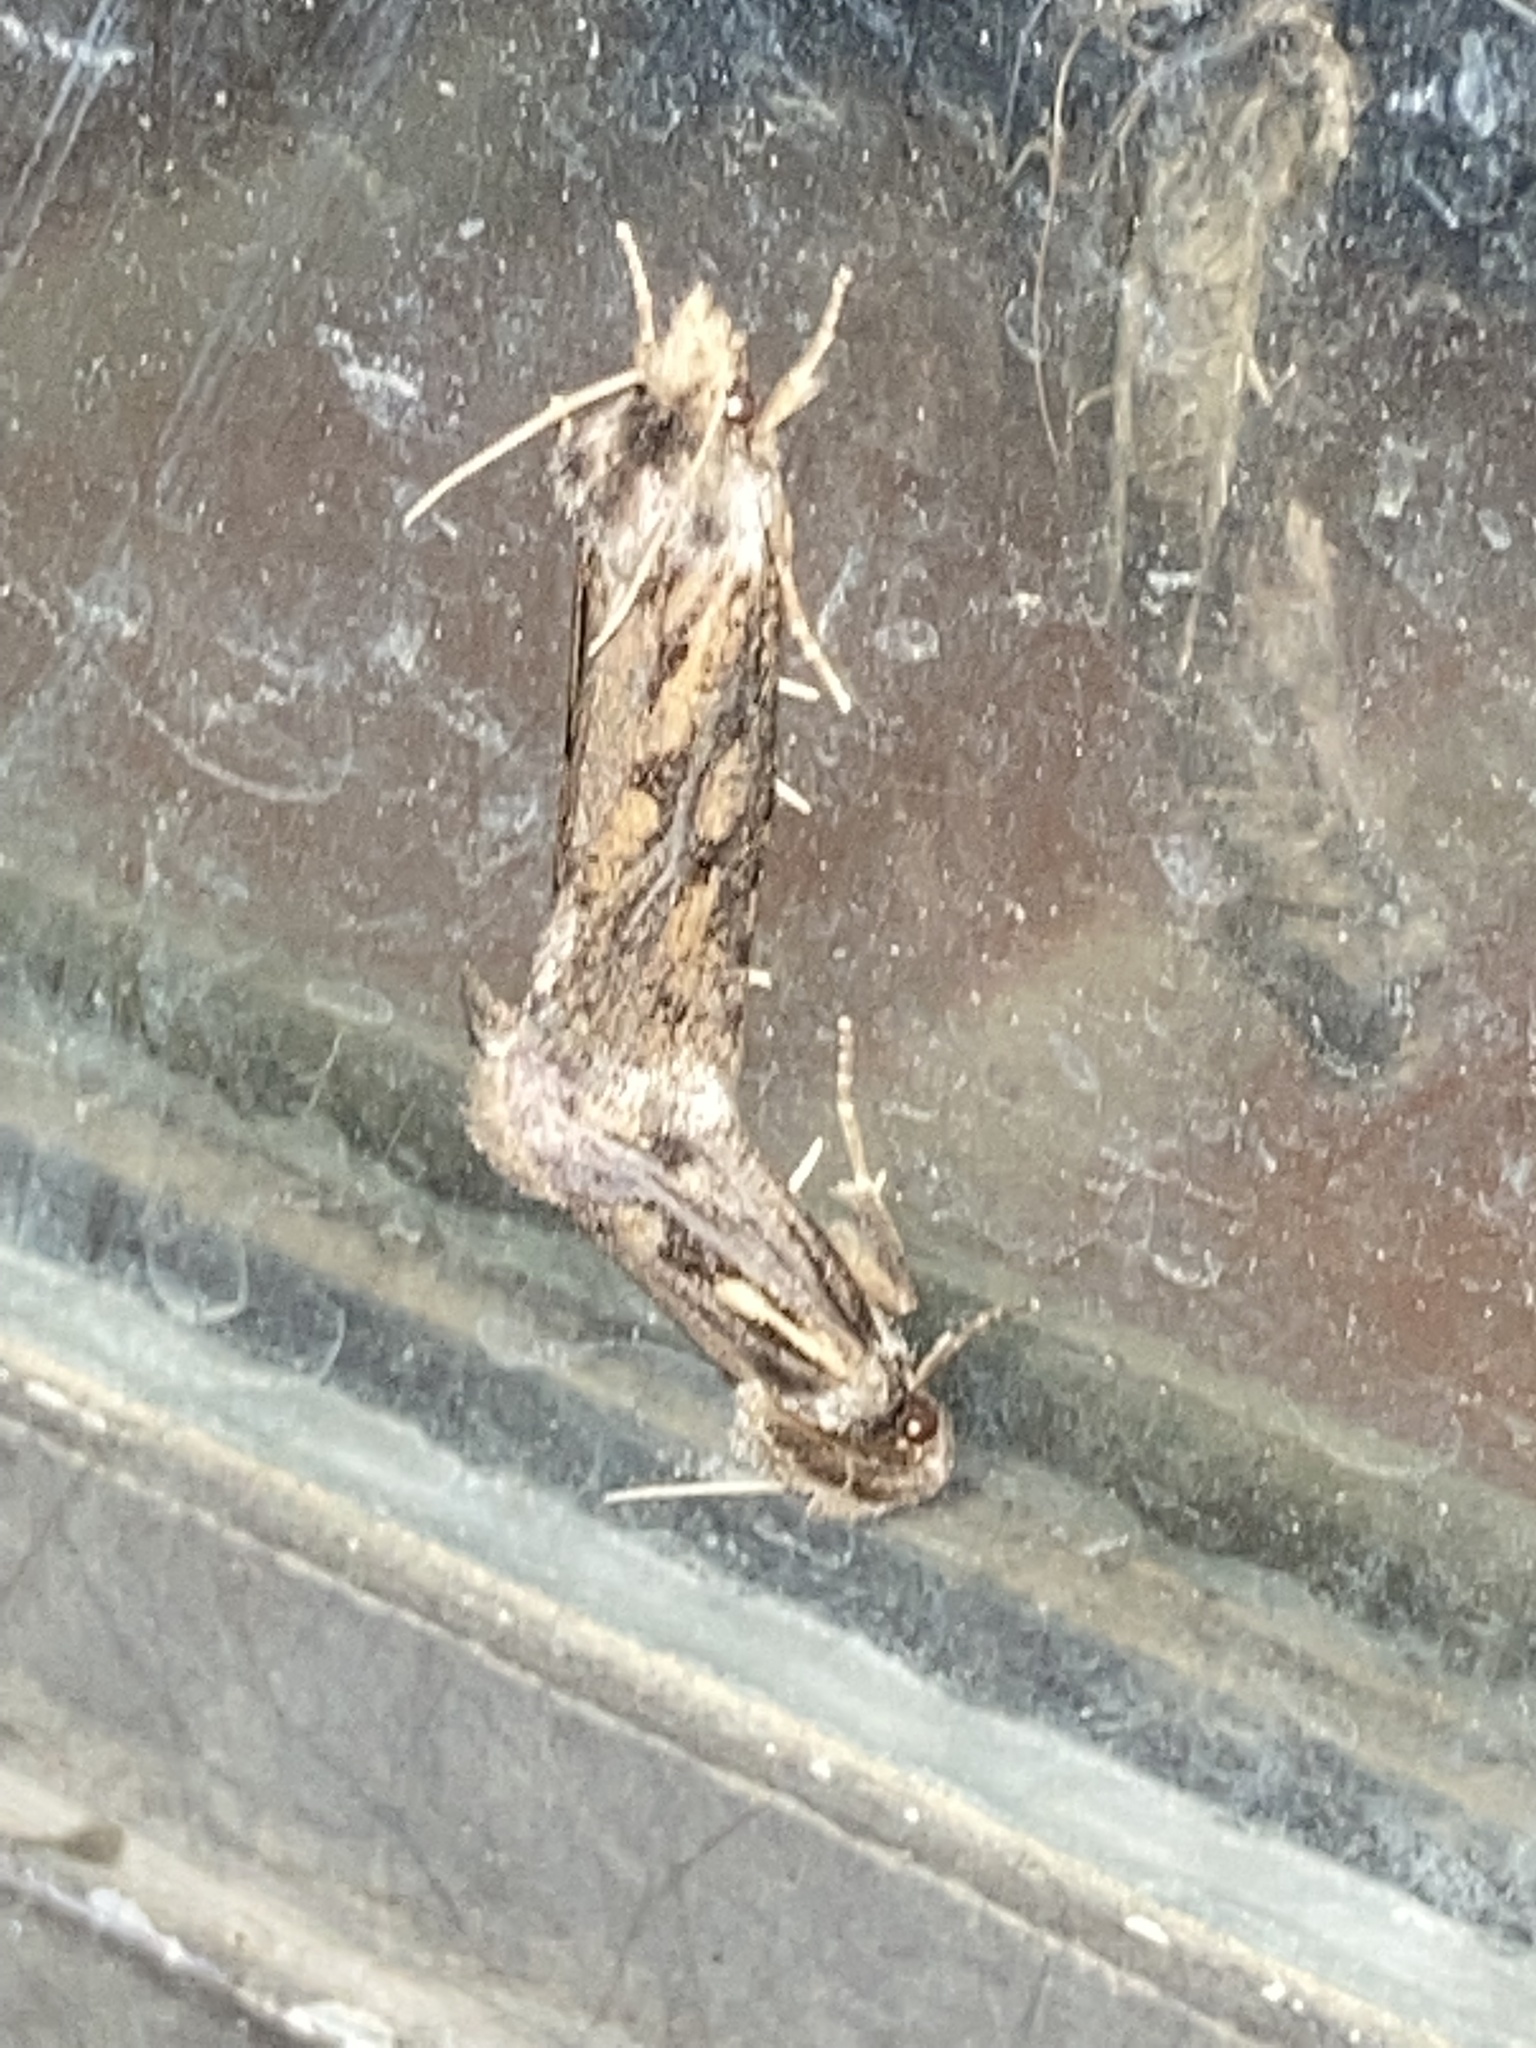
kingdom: Animalia
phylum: Arthropoda
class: Insecta
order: Lepidoptera
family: Tineidae
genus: Acrolophus
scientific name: Acrolophus popeanella
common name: Clemens' grass tubeworm moth
